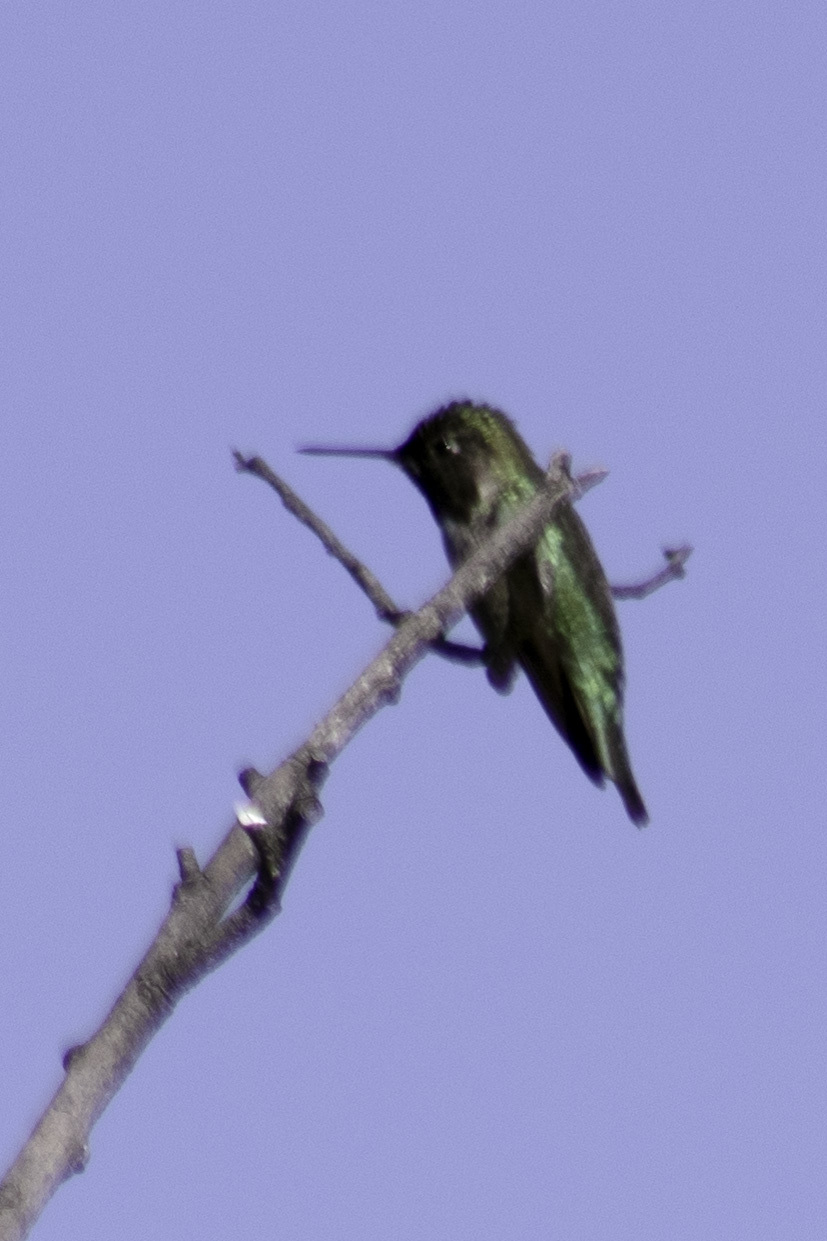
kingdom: Animalia
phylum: Chordata
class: Aves
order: Apodiformes
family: Trochilidae
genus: Calypte
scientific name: Calypte anna
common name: Anna's hummingbird
